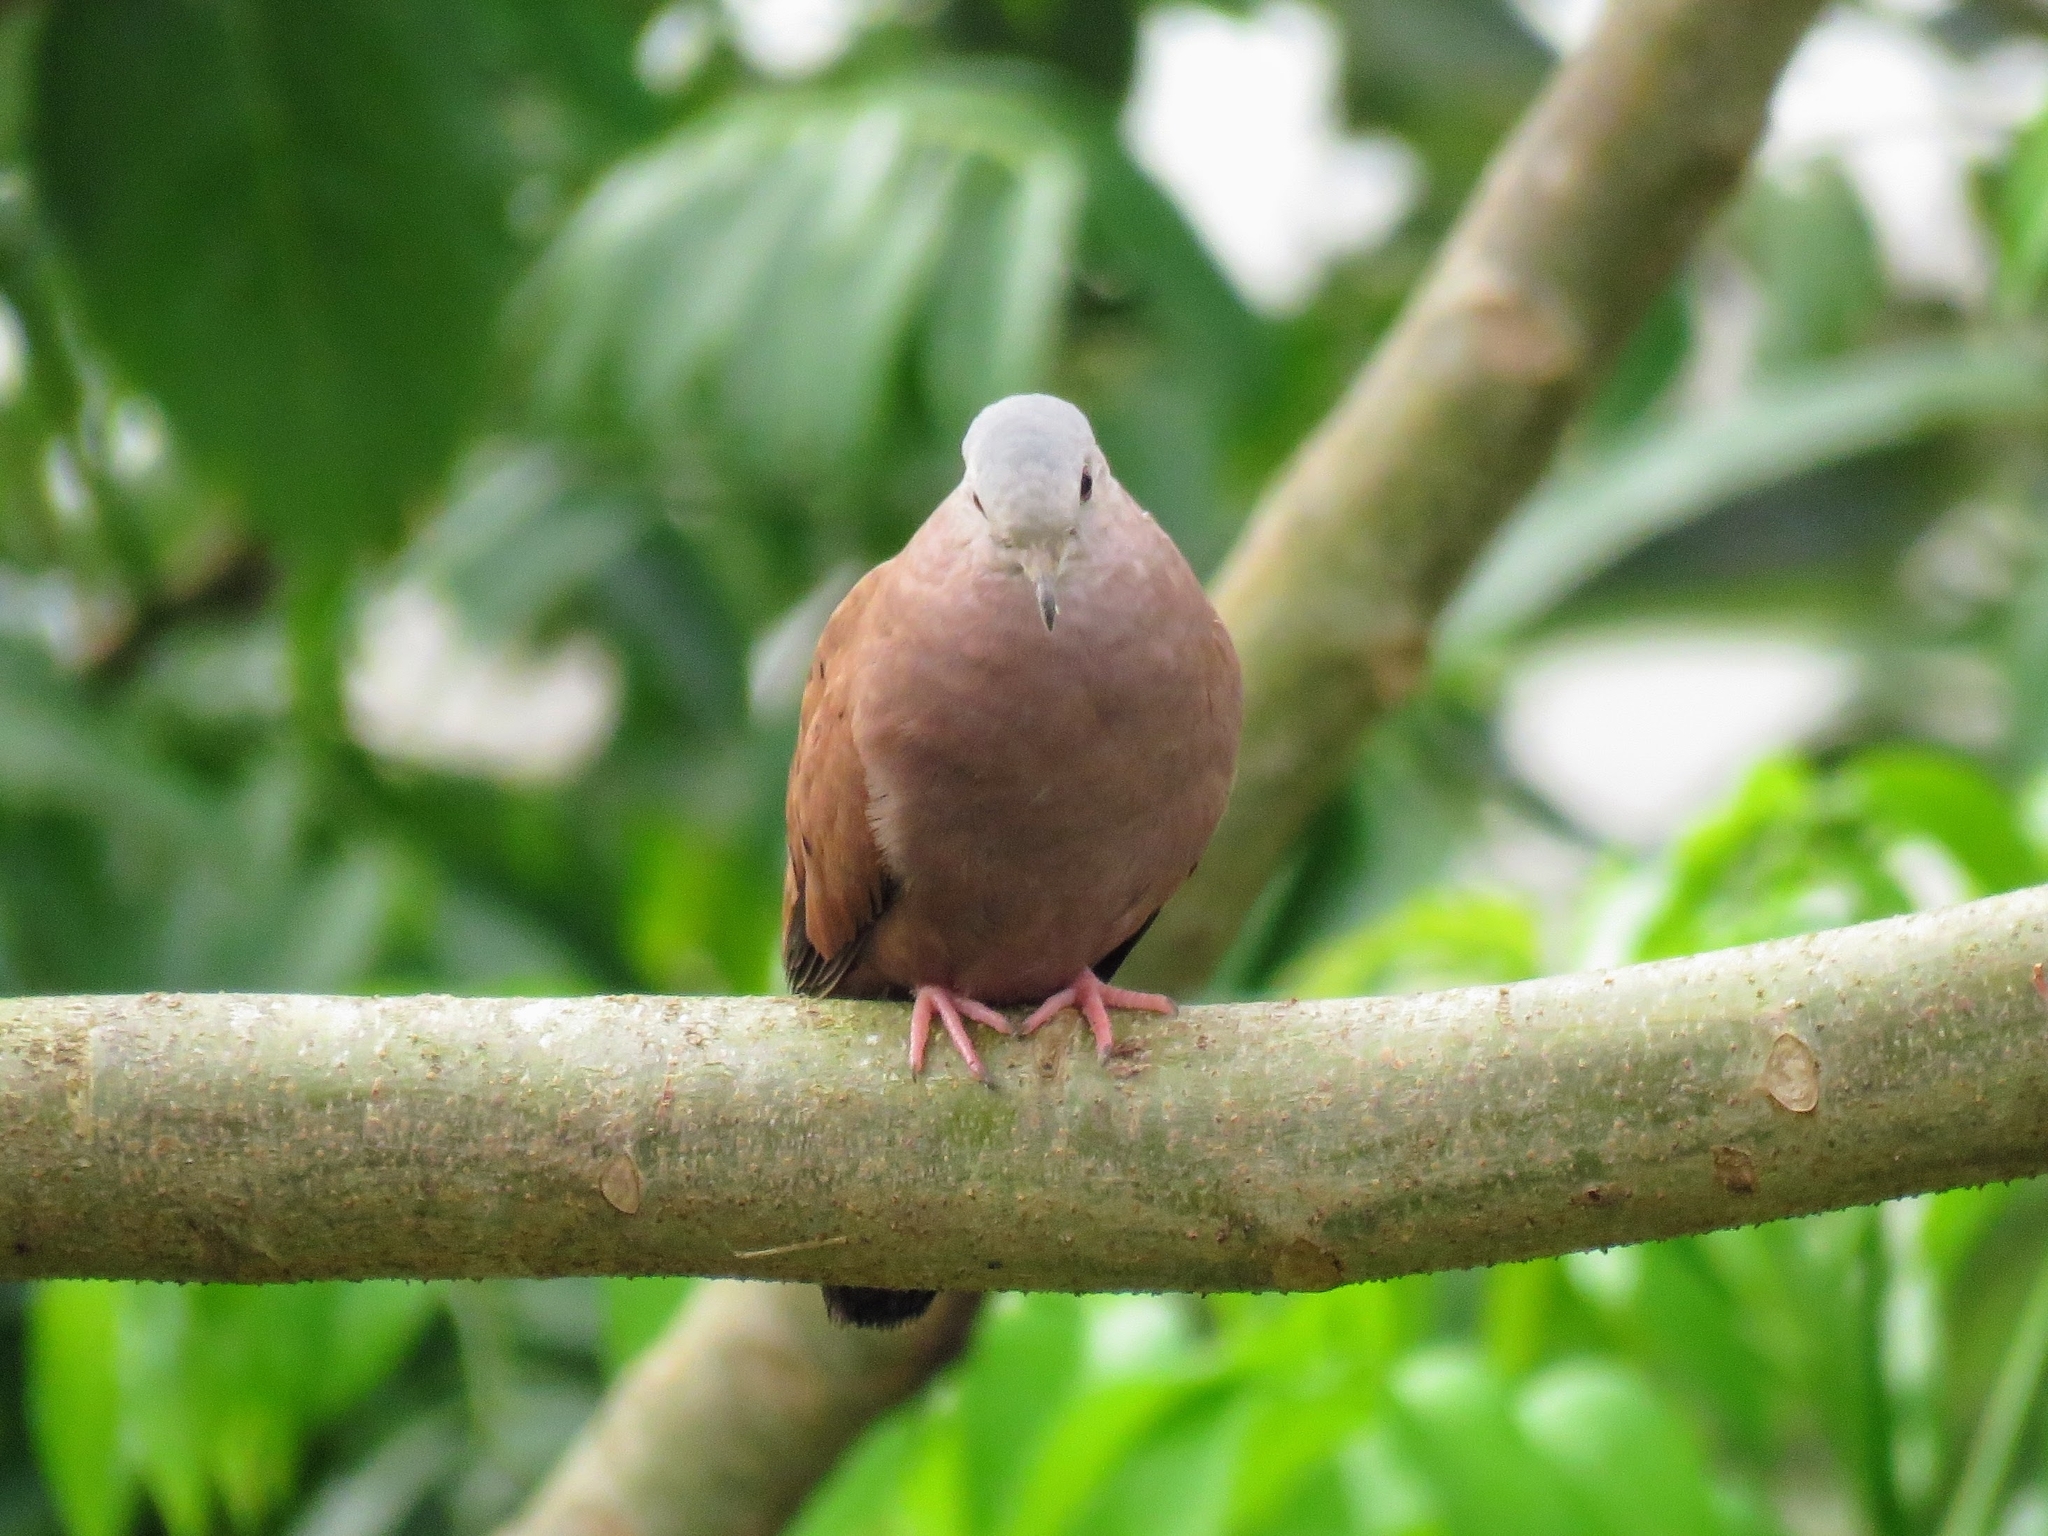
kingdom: Animalia
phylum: Chordata
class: Aves
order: Columbiformes
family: Columbidae
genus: Columbina
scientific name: Columbina talpacoti
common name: Ruddy ground dove
